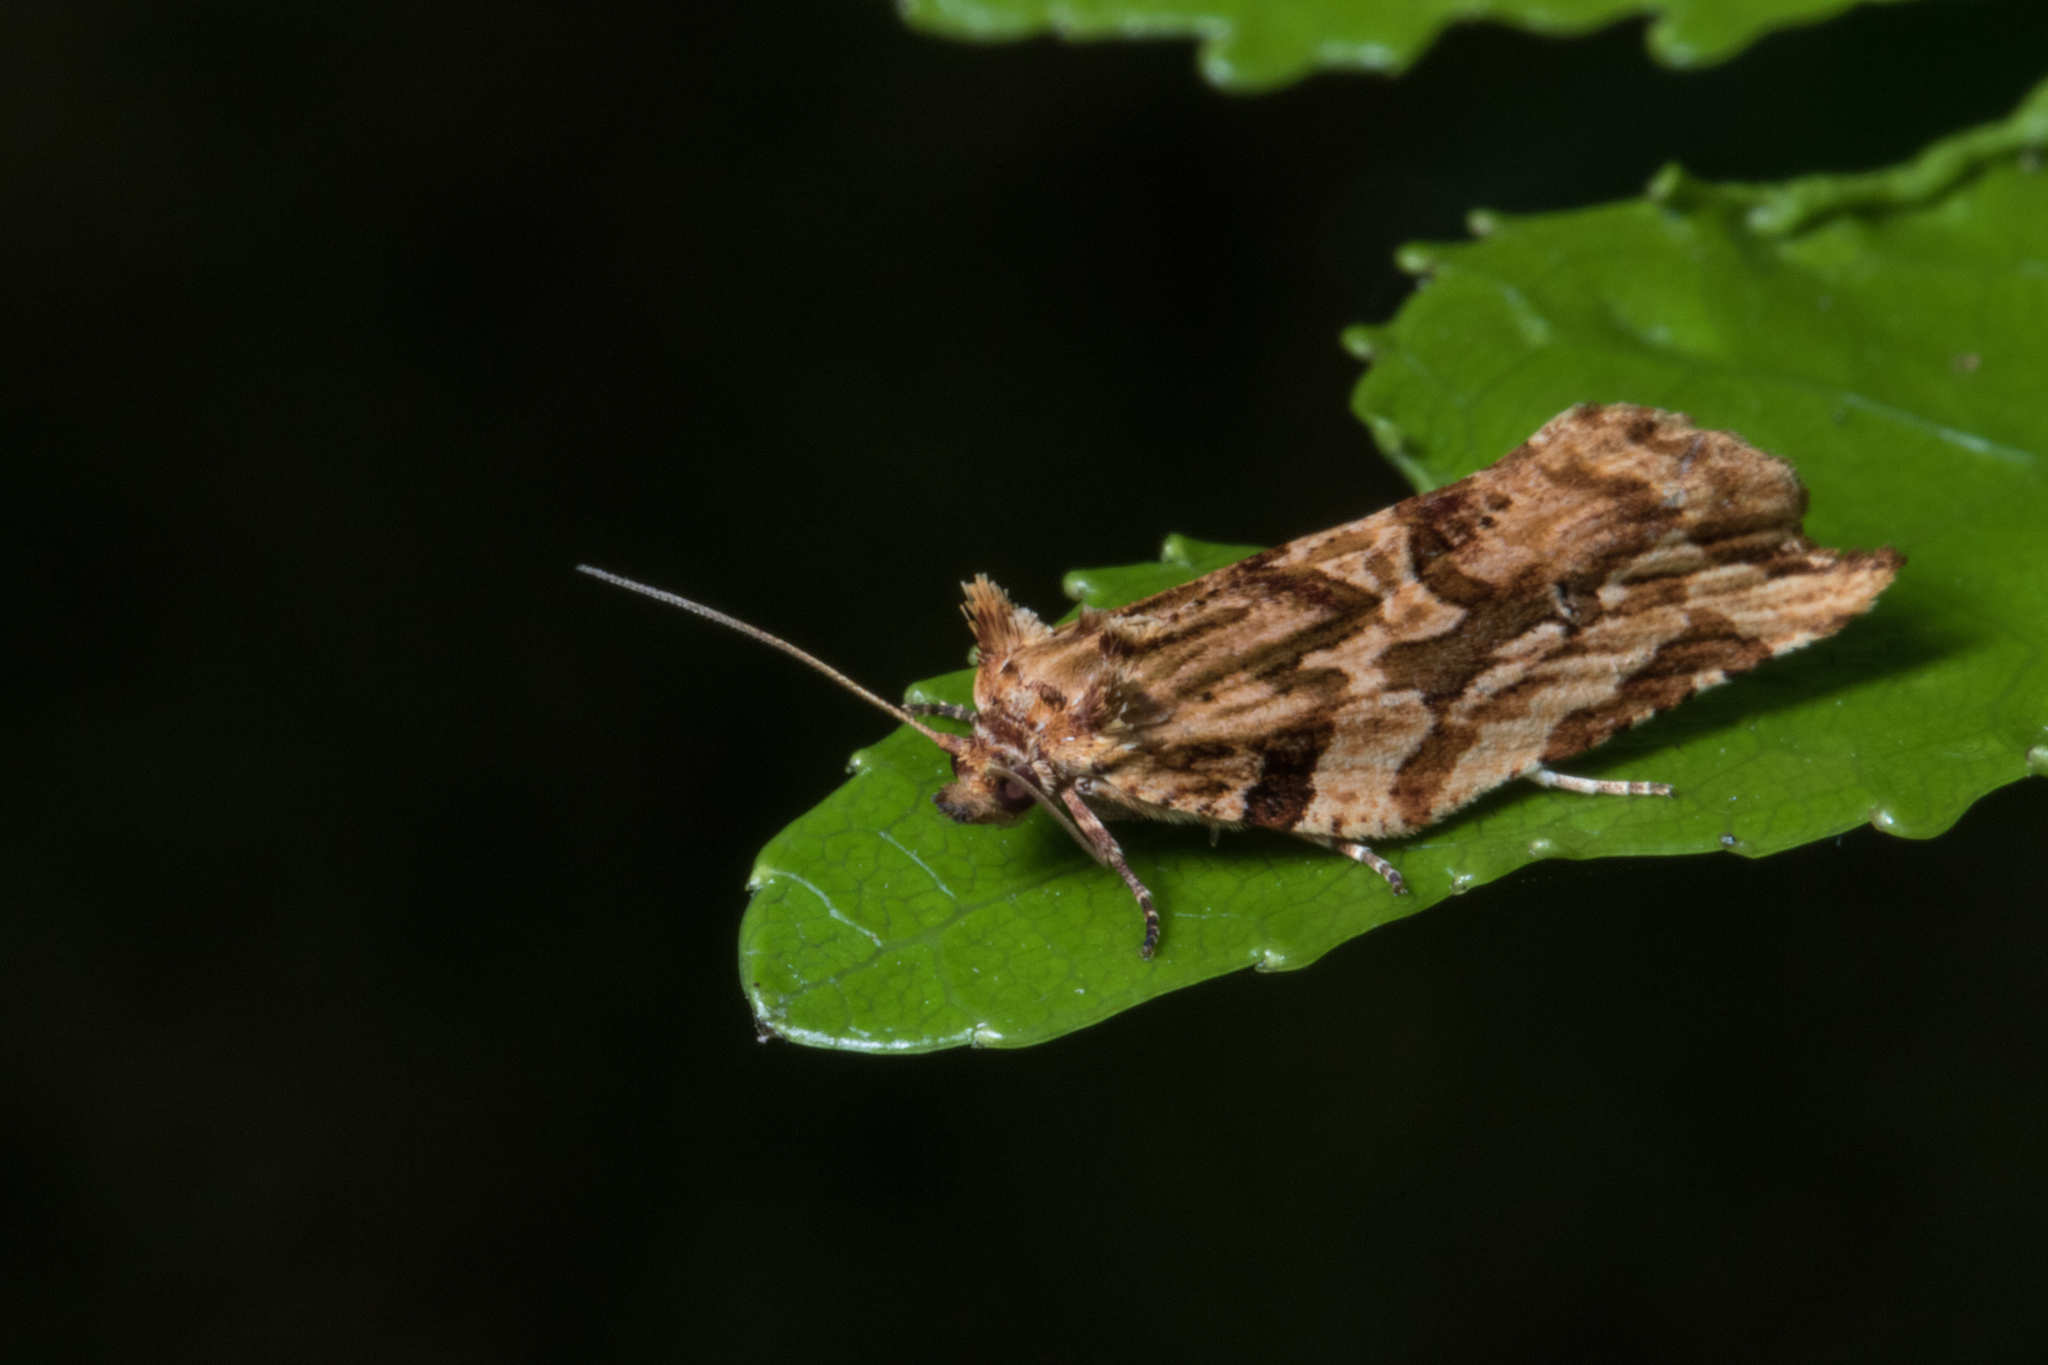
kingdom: Animalia
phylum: Arthropoda
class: Insecta
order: Lepidoptera
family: Tortricidae
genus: Epalxiphora
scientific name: Epalxiphora axenana
